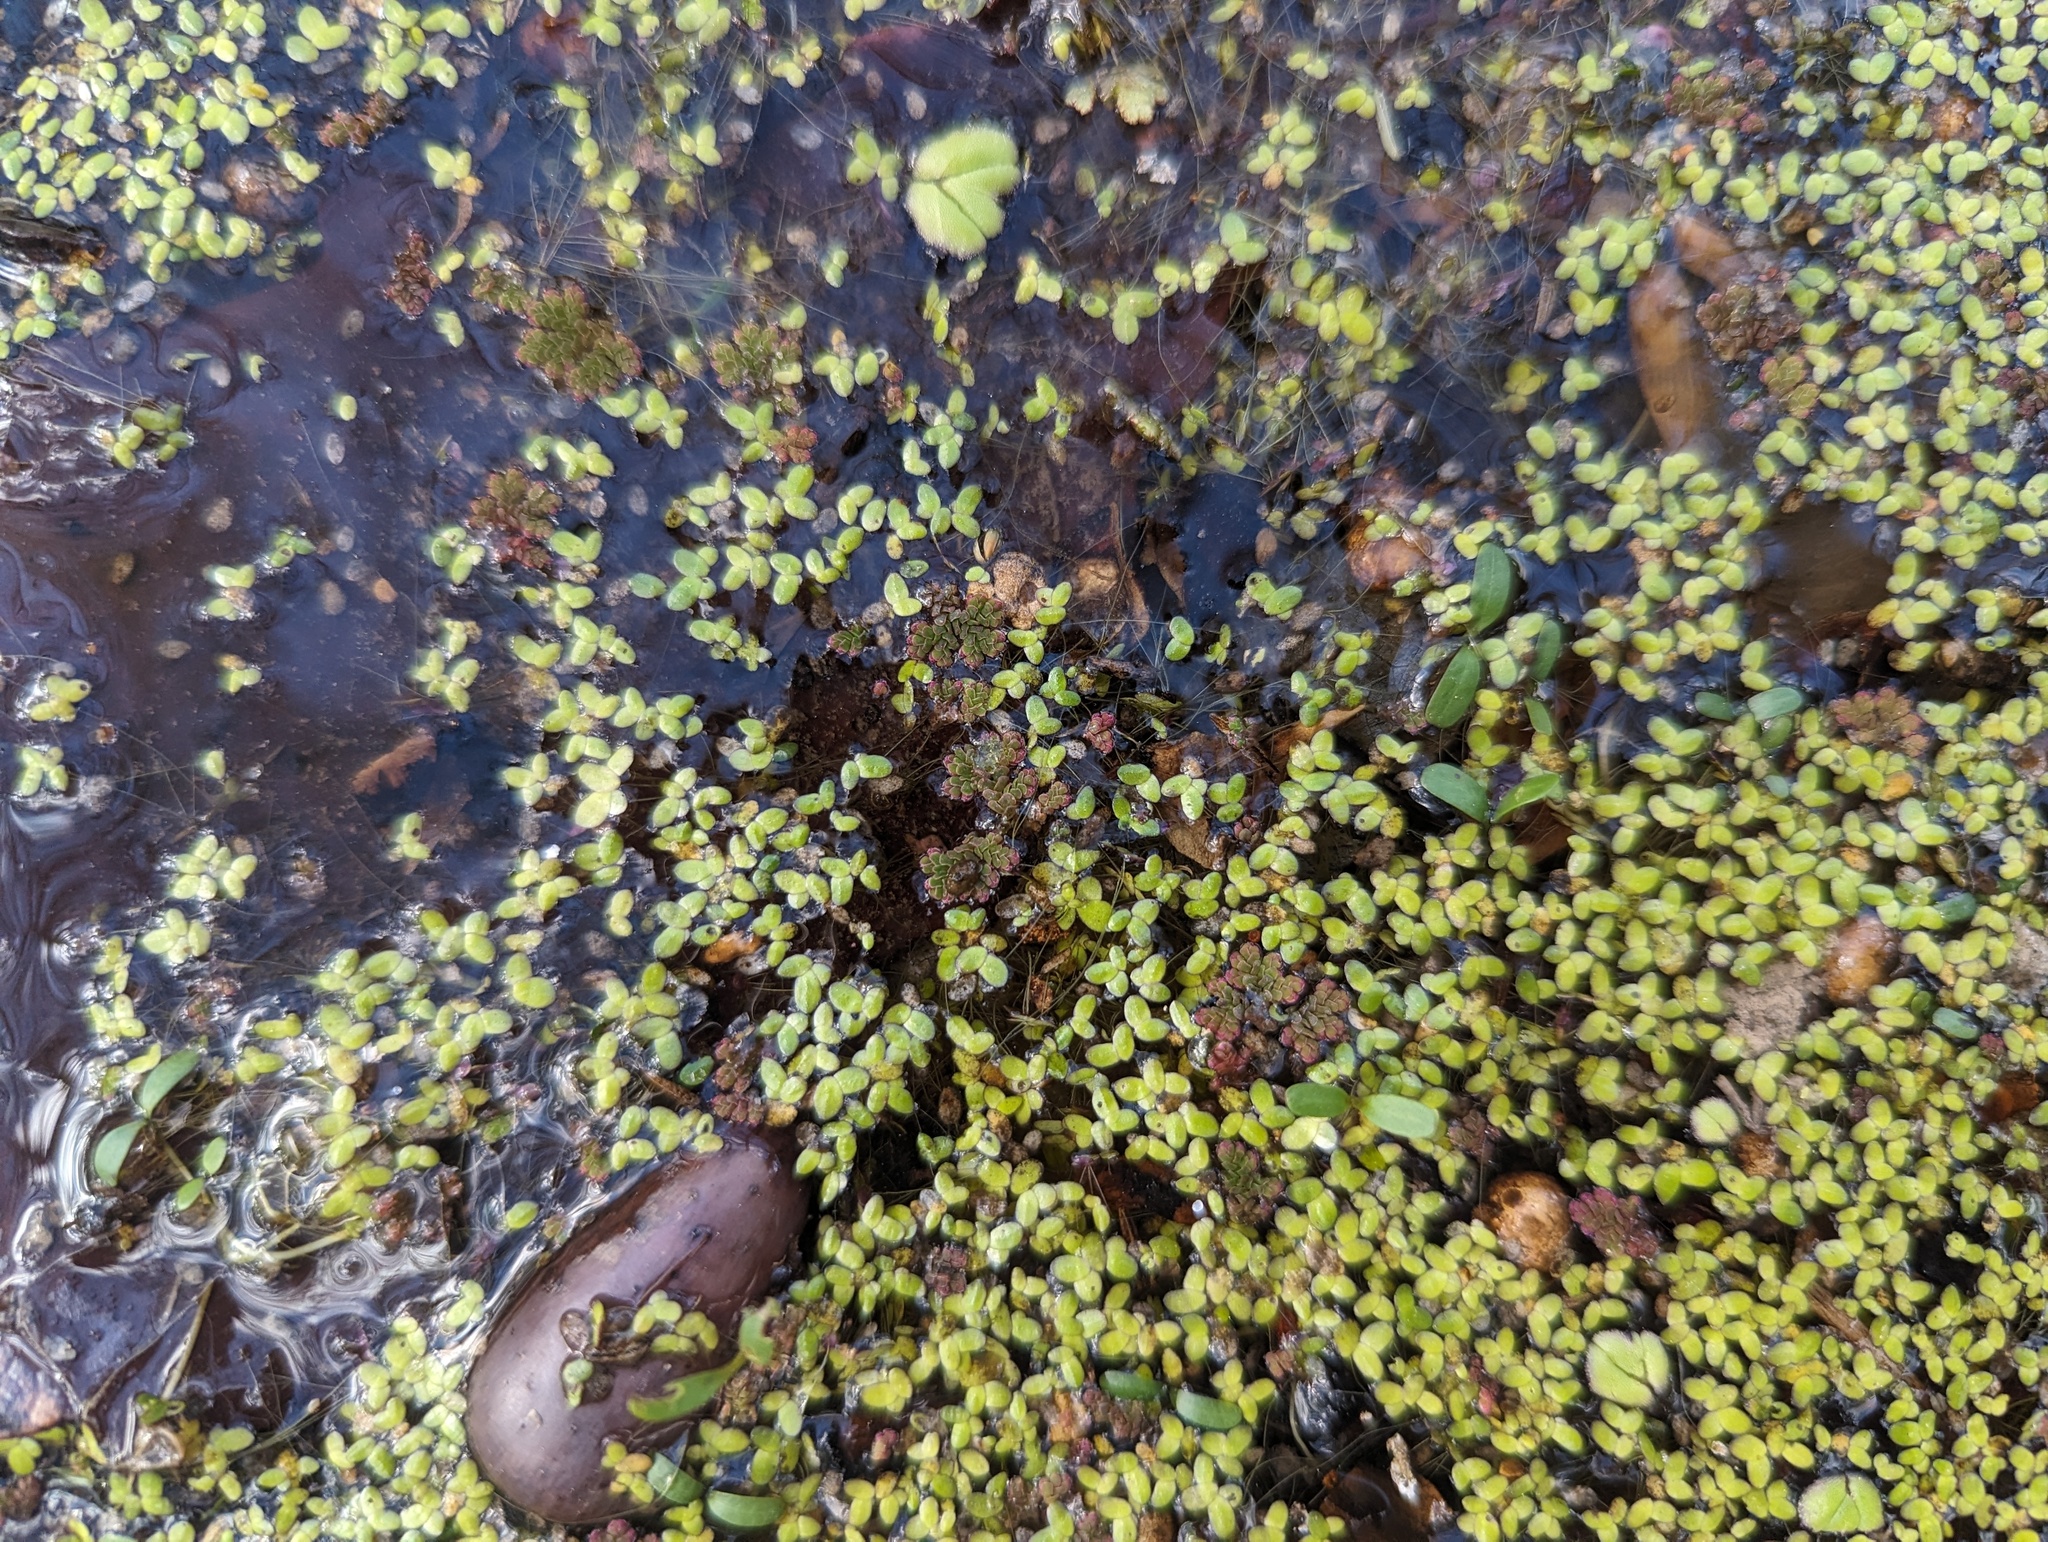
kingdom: Plantae
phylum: Tracheophyta
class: Polypodiopsida
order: Salviniales
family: Salviniaceae
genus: Azolla
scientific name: Azolla cristata
